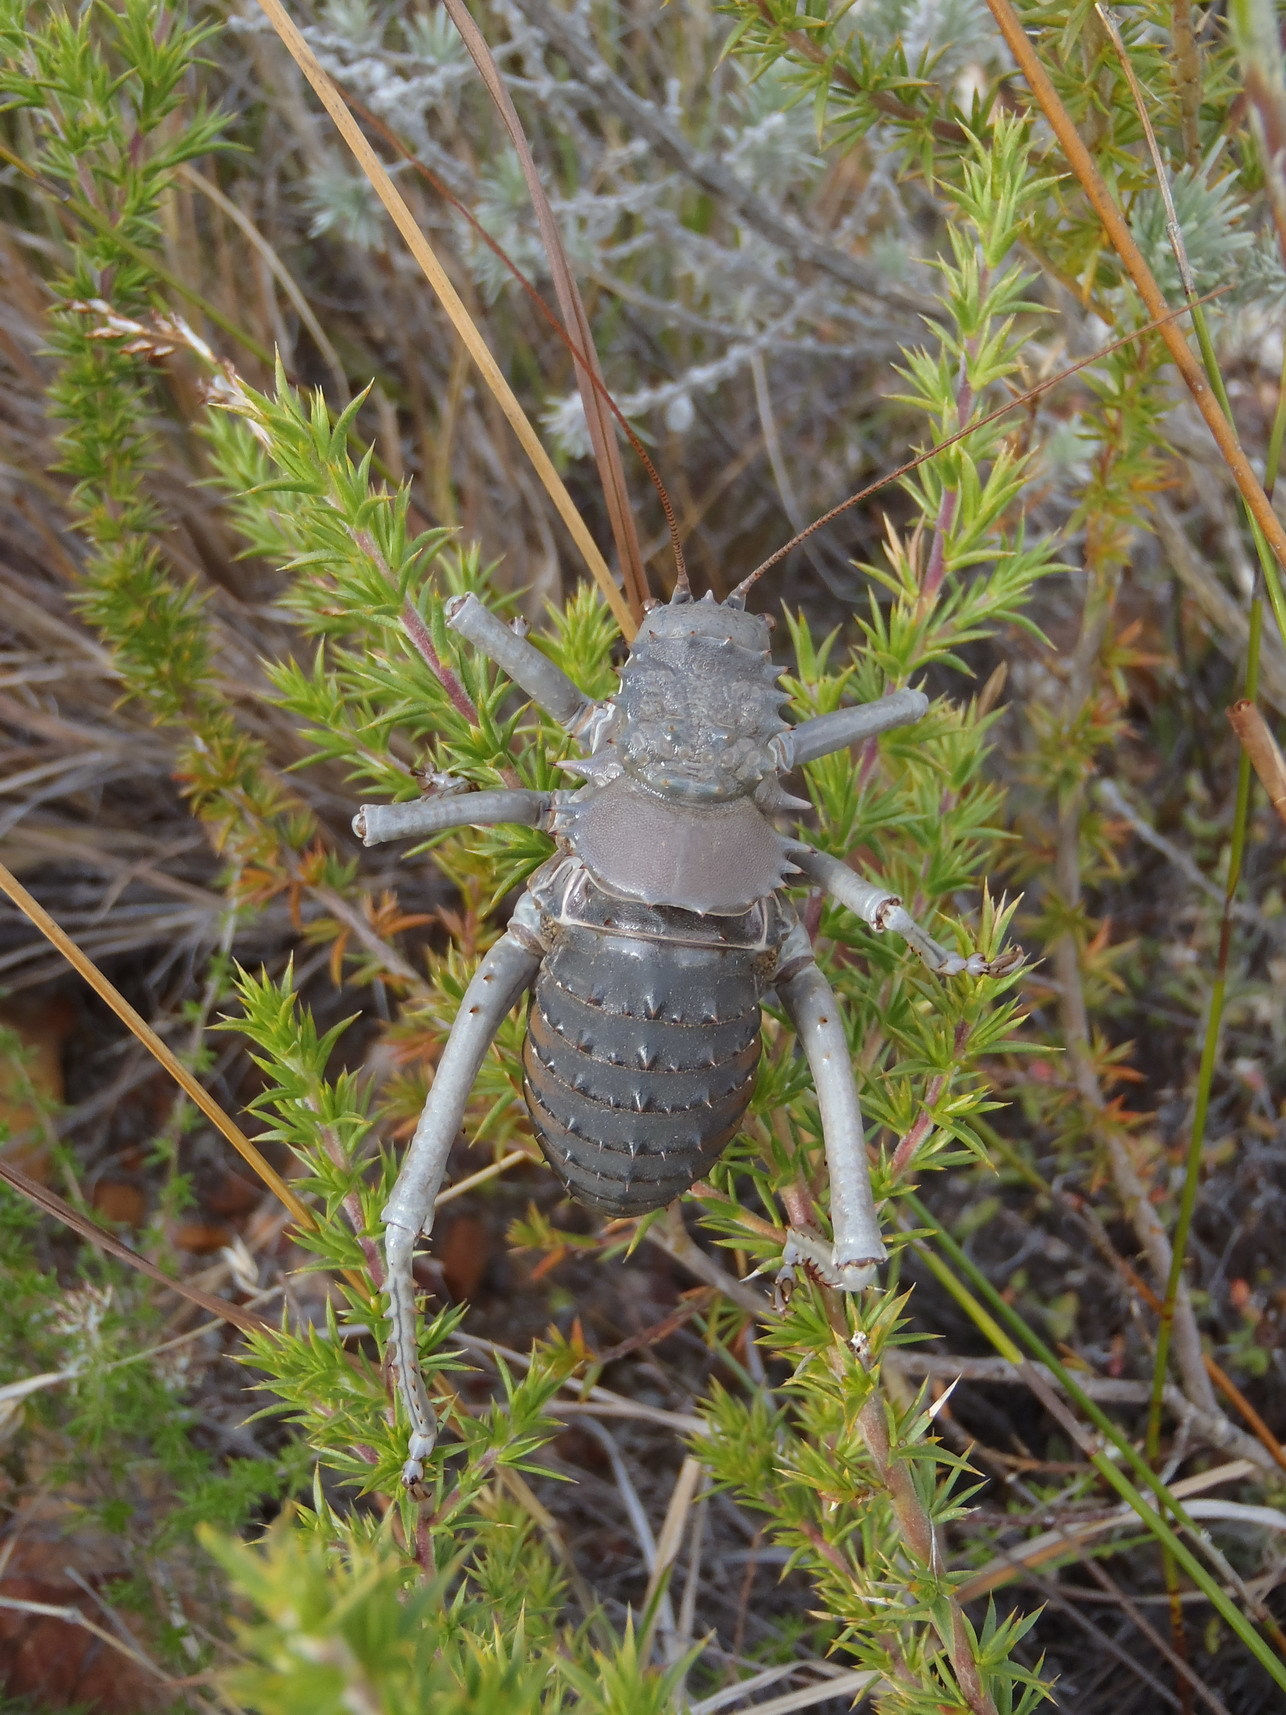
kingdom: Animalia
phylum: Arthropoda
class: Insecta
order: Orthoptera
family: Tettigoniidae
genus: Hetrodes
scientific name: Hetrodes pupus
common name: Koringkriek
